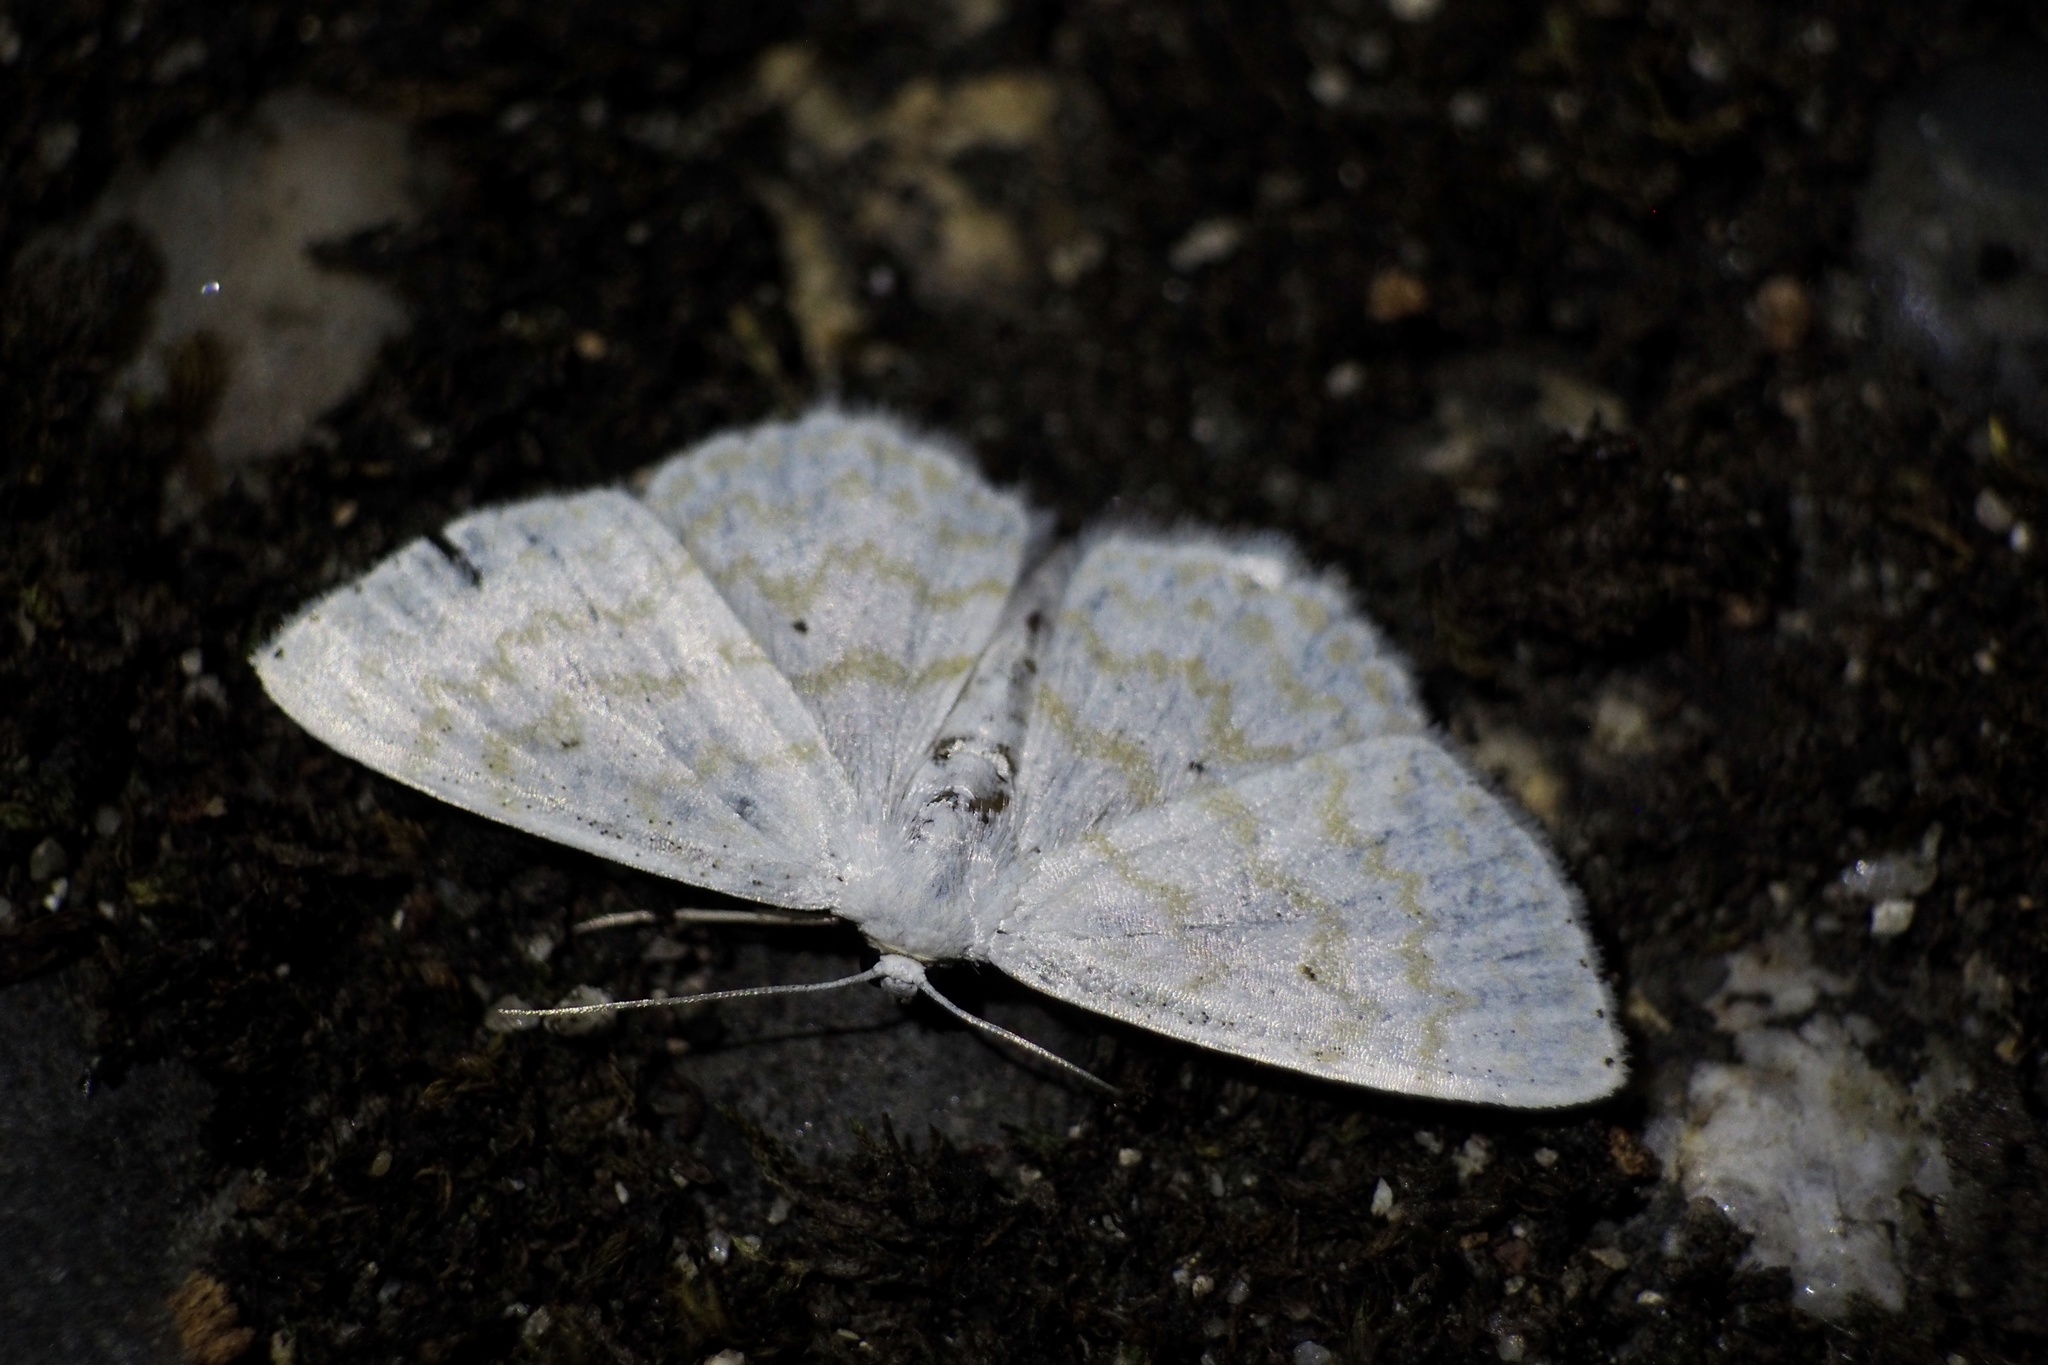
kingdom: Animalia
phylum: Arthropoda
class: Insecta
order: Lepidoptera
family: Geometridae
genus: Cabera
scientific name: Cabera purus
